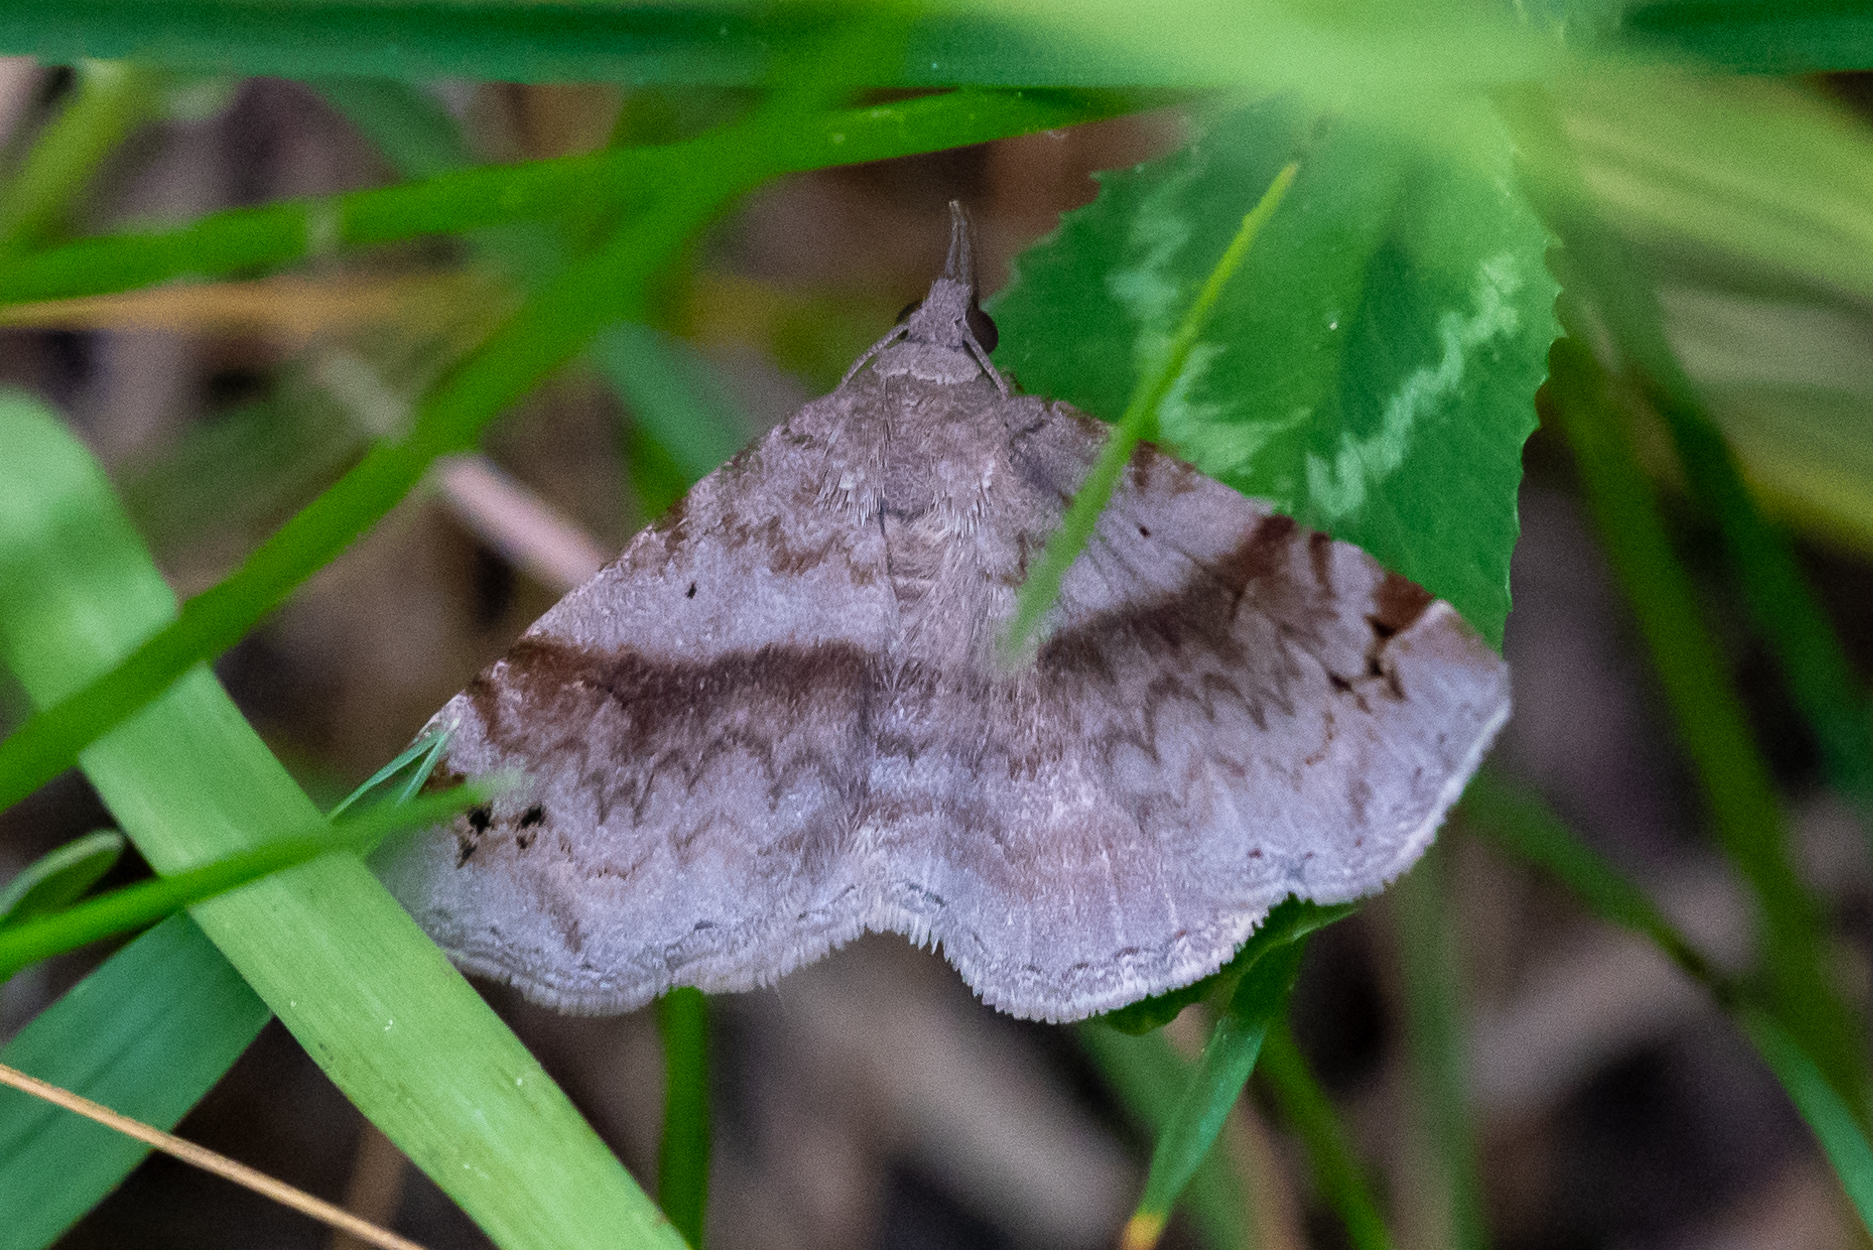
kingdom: Animalia
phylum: Arthropoda
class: Insecta
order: Lepidoptera
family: Erebidae
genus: Spargaloma
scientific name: Spargaloma sexpunctata
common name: Six-spotted gray
